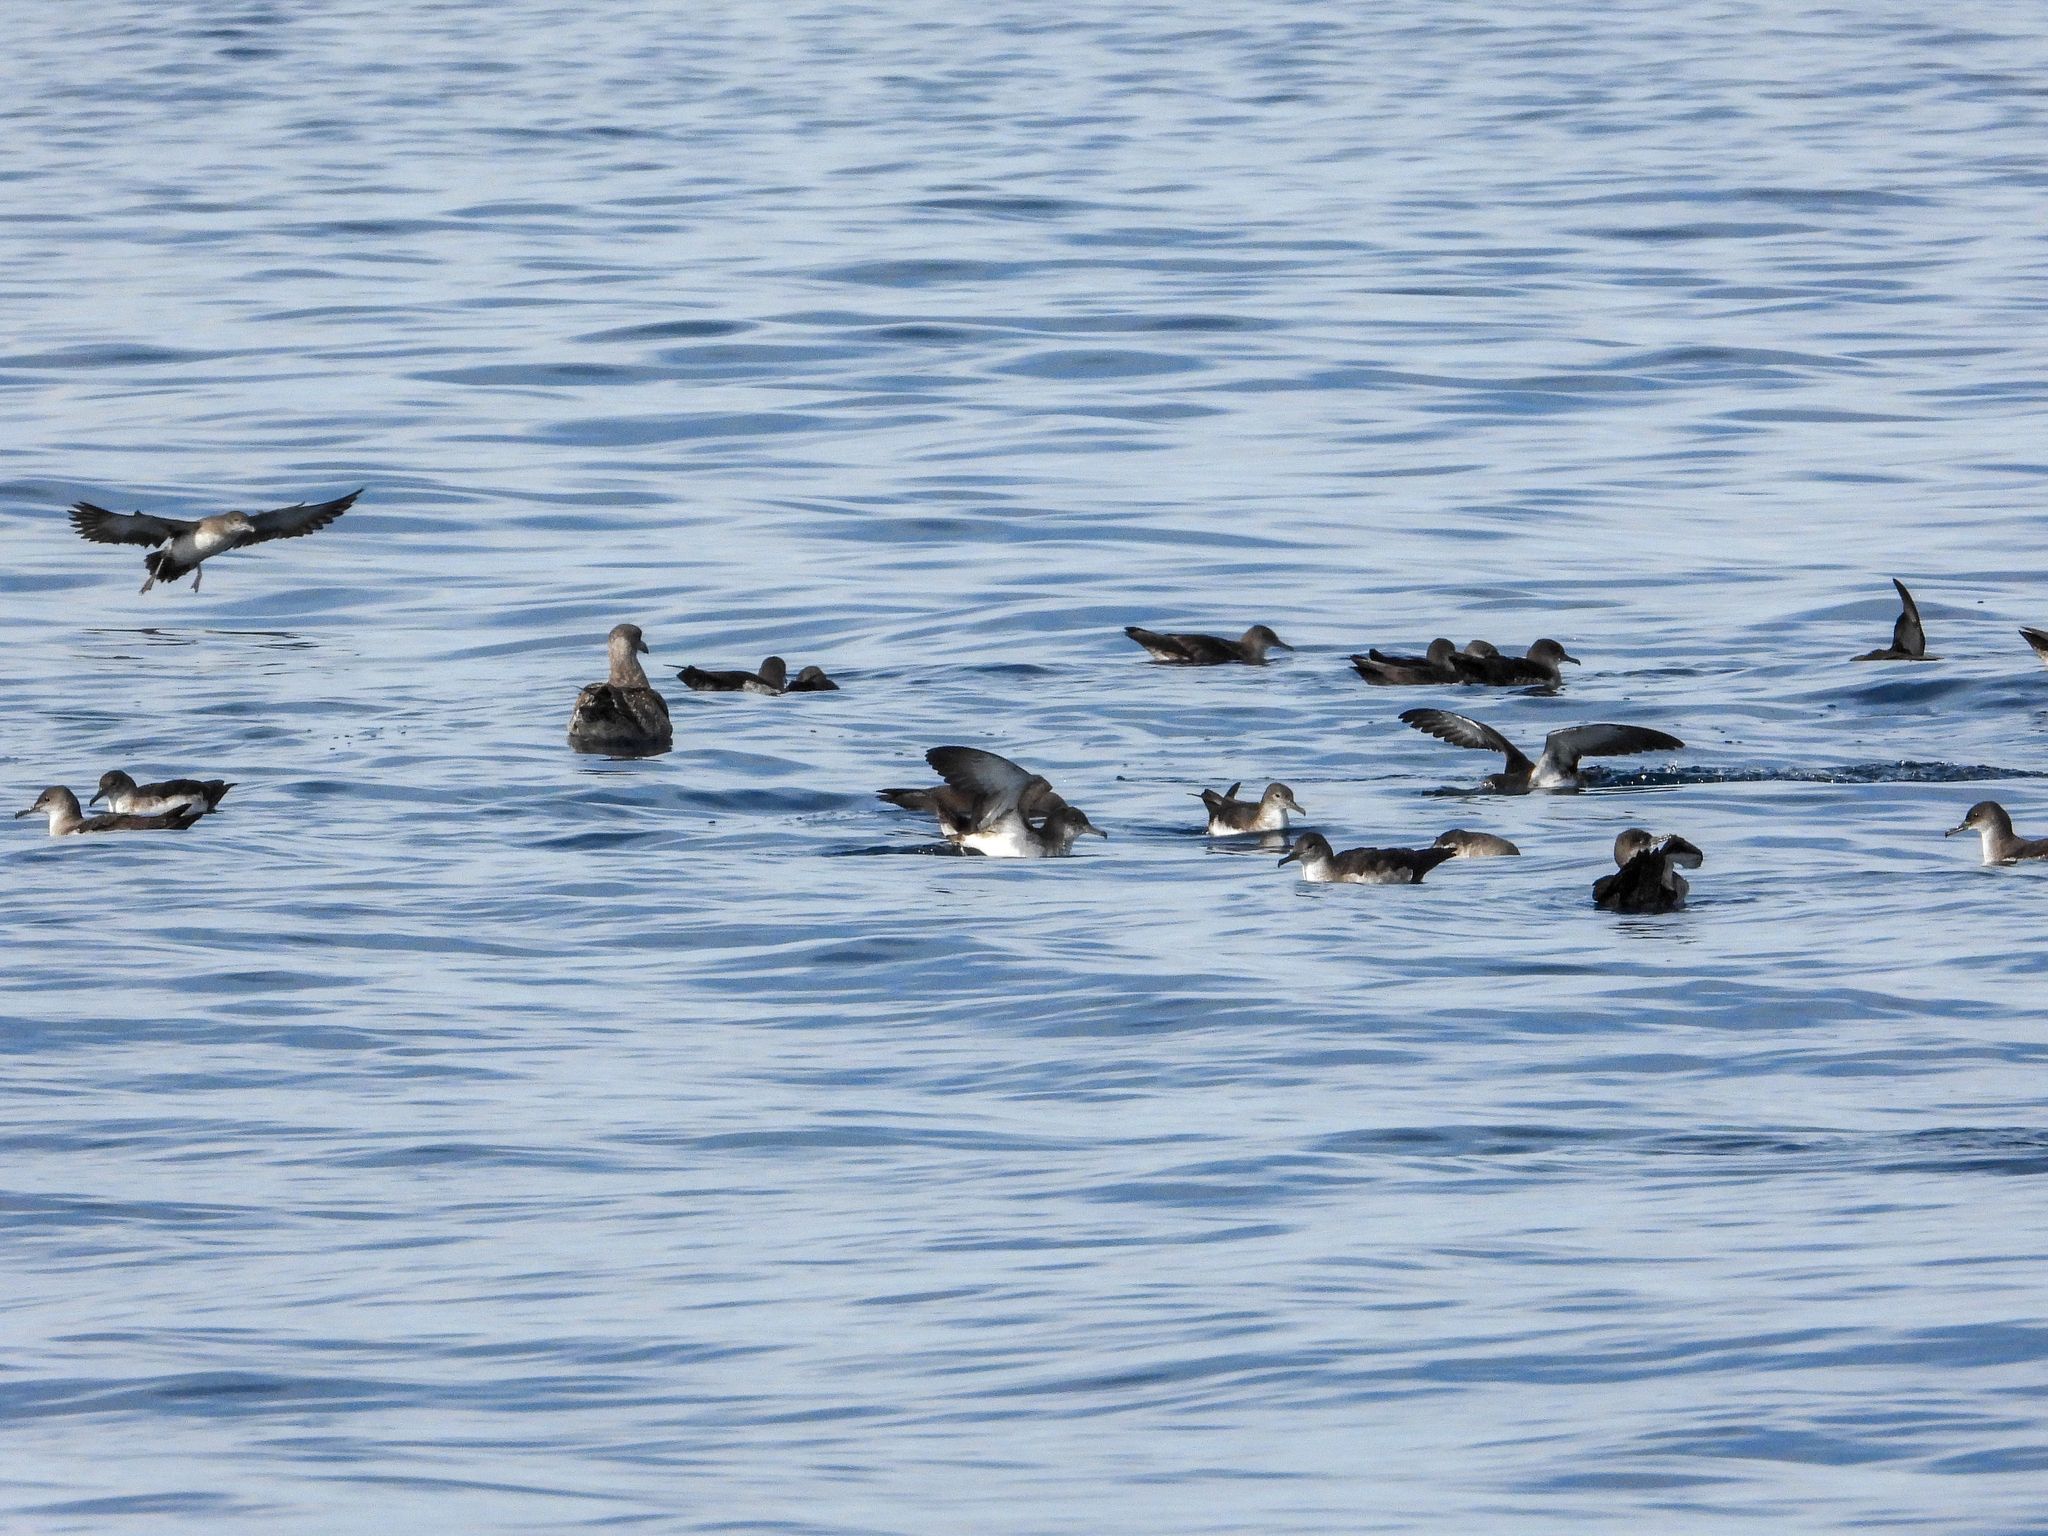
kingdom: Animalia
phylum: Chordata
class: Aves
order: Procellariiformes
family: Procellariidae
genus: Puffinus
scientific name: Puffinus opisthomelas
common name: Black-vented shearwater
